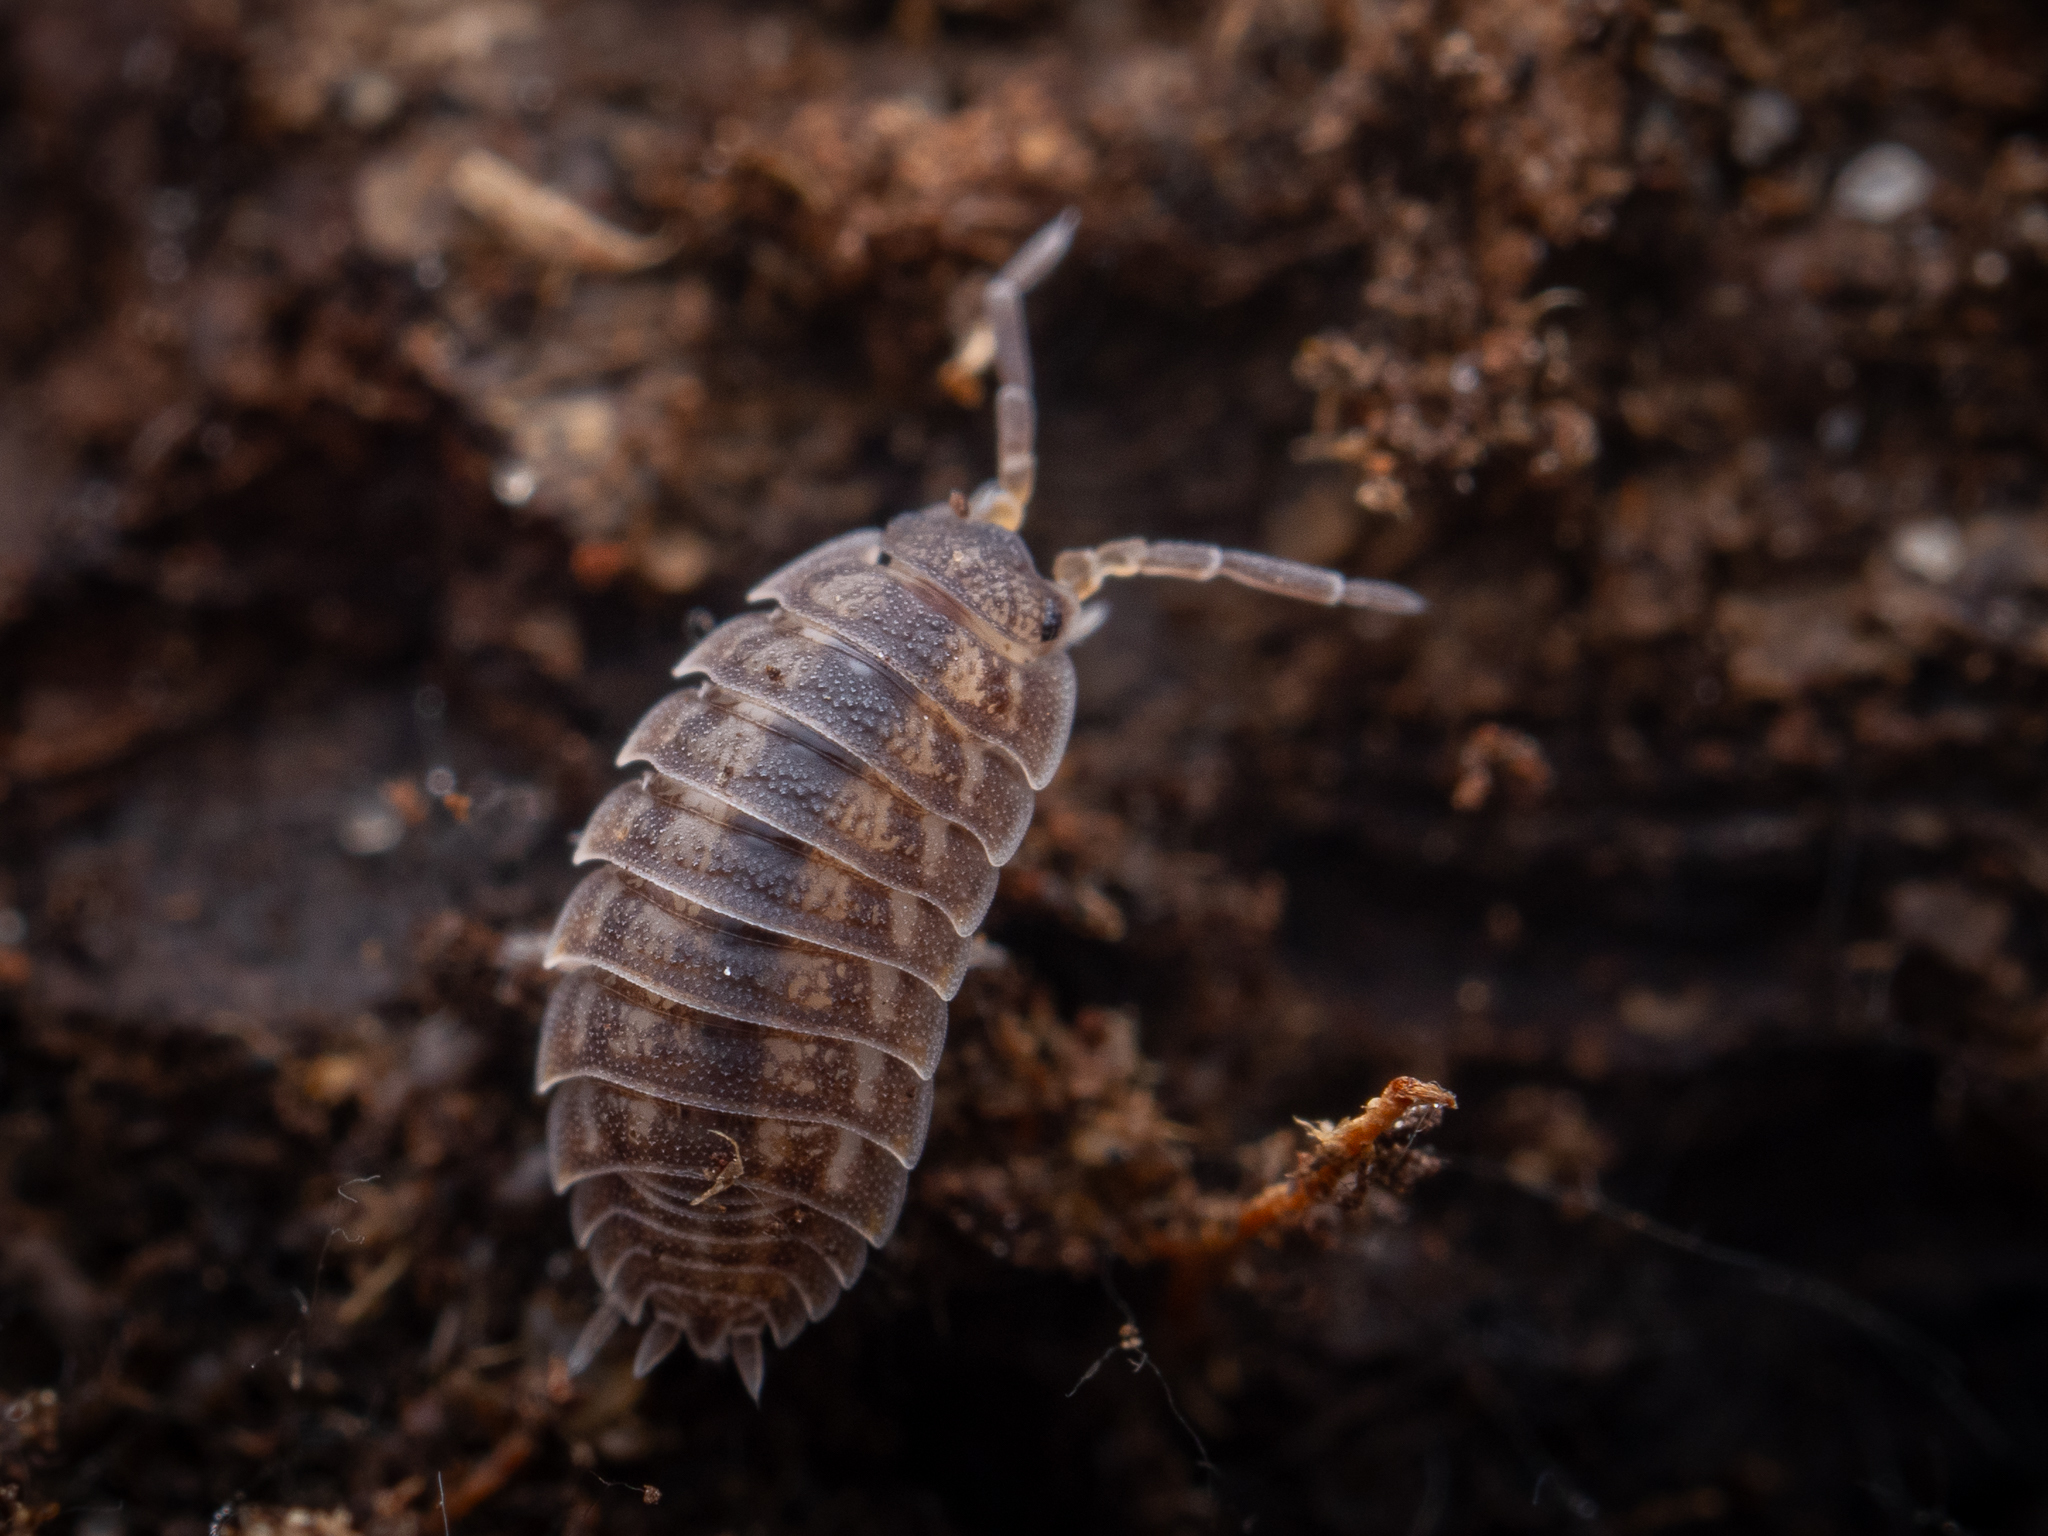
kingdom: Animalia
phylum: Arthropoda
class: Malacostraca
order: Isopoda
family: Trachelipodidae
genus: Trachelipus
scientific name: Trachelipus rathkii
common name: Isopod
